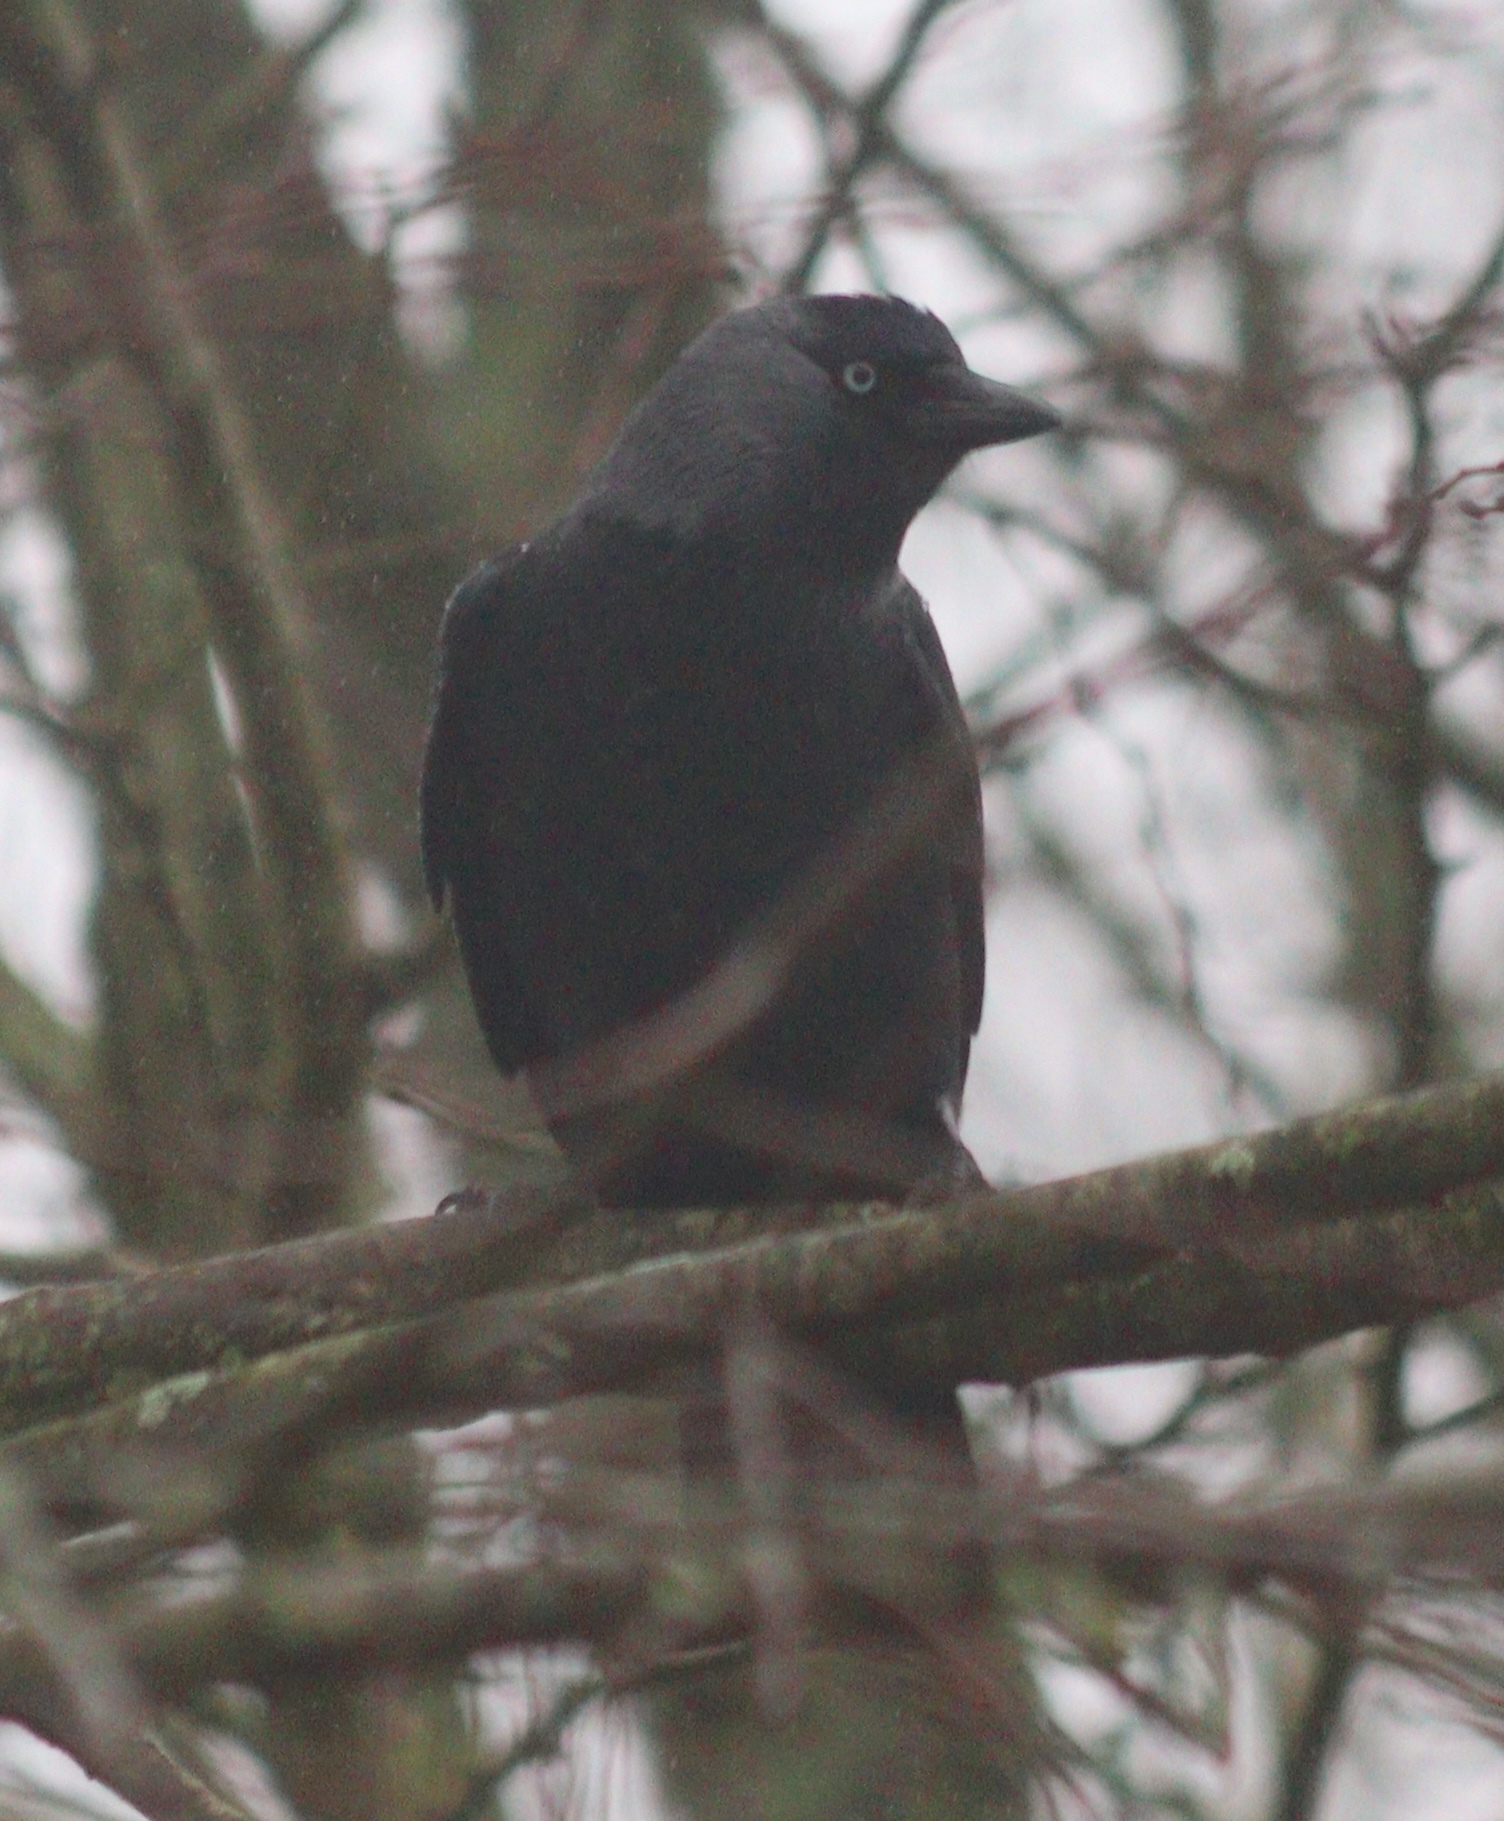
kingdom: Animalia
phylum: Chordata
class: Aves
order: Passeriformes
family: Corvidae
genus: Coloeus
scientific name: Coloeus monedula
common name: Western jackdaw
